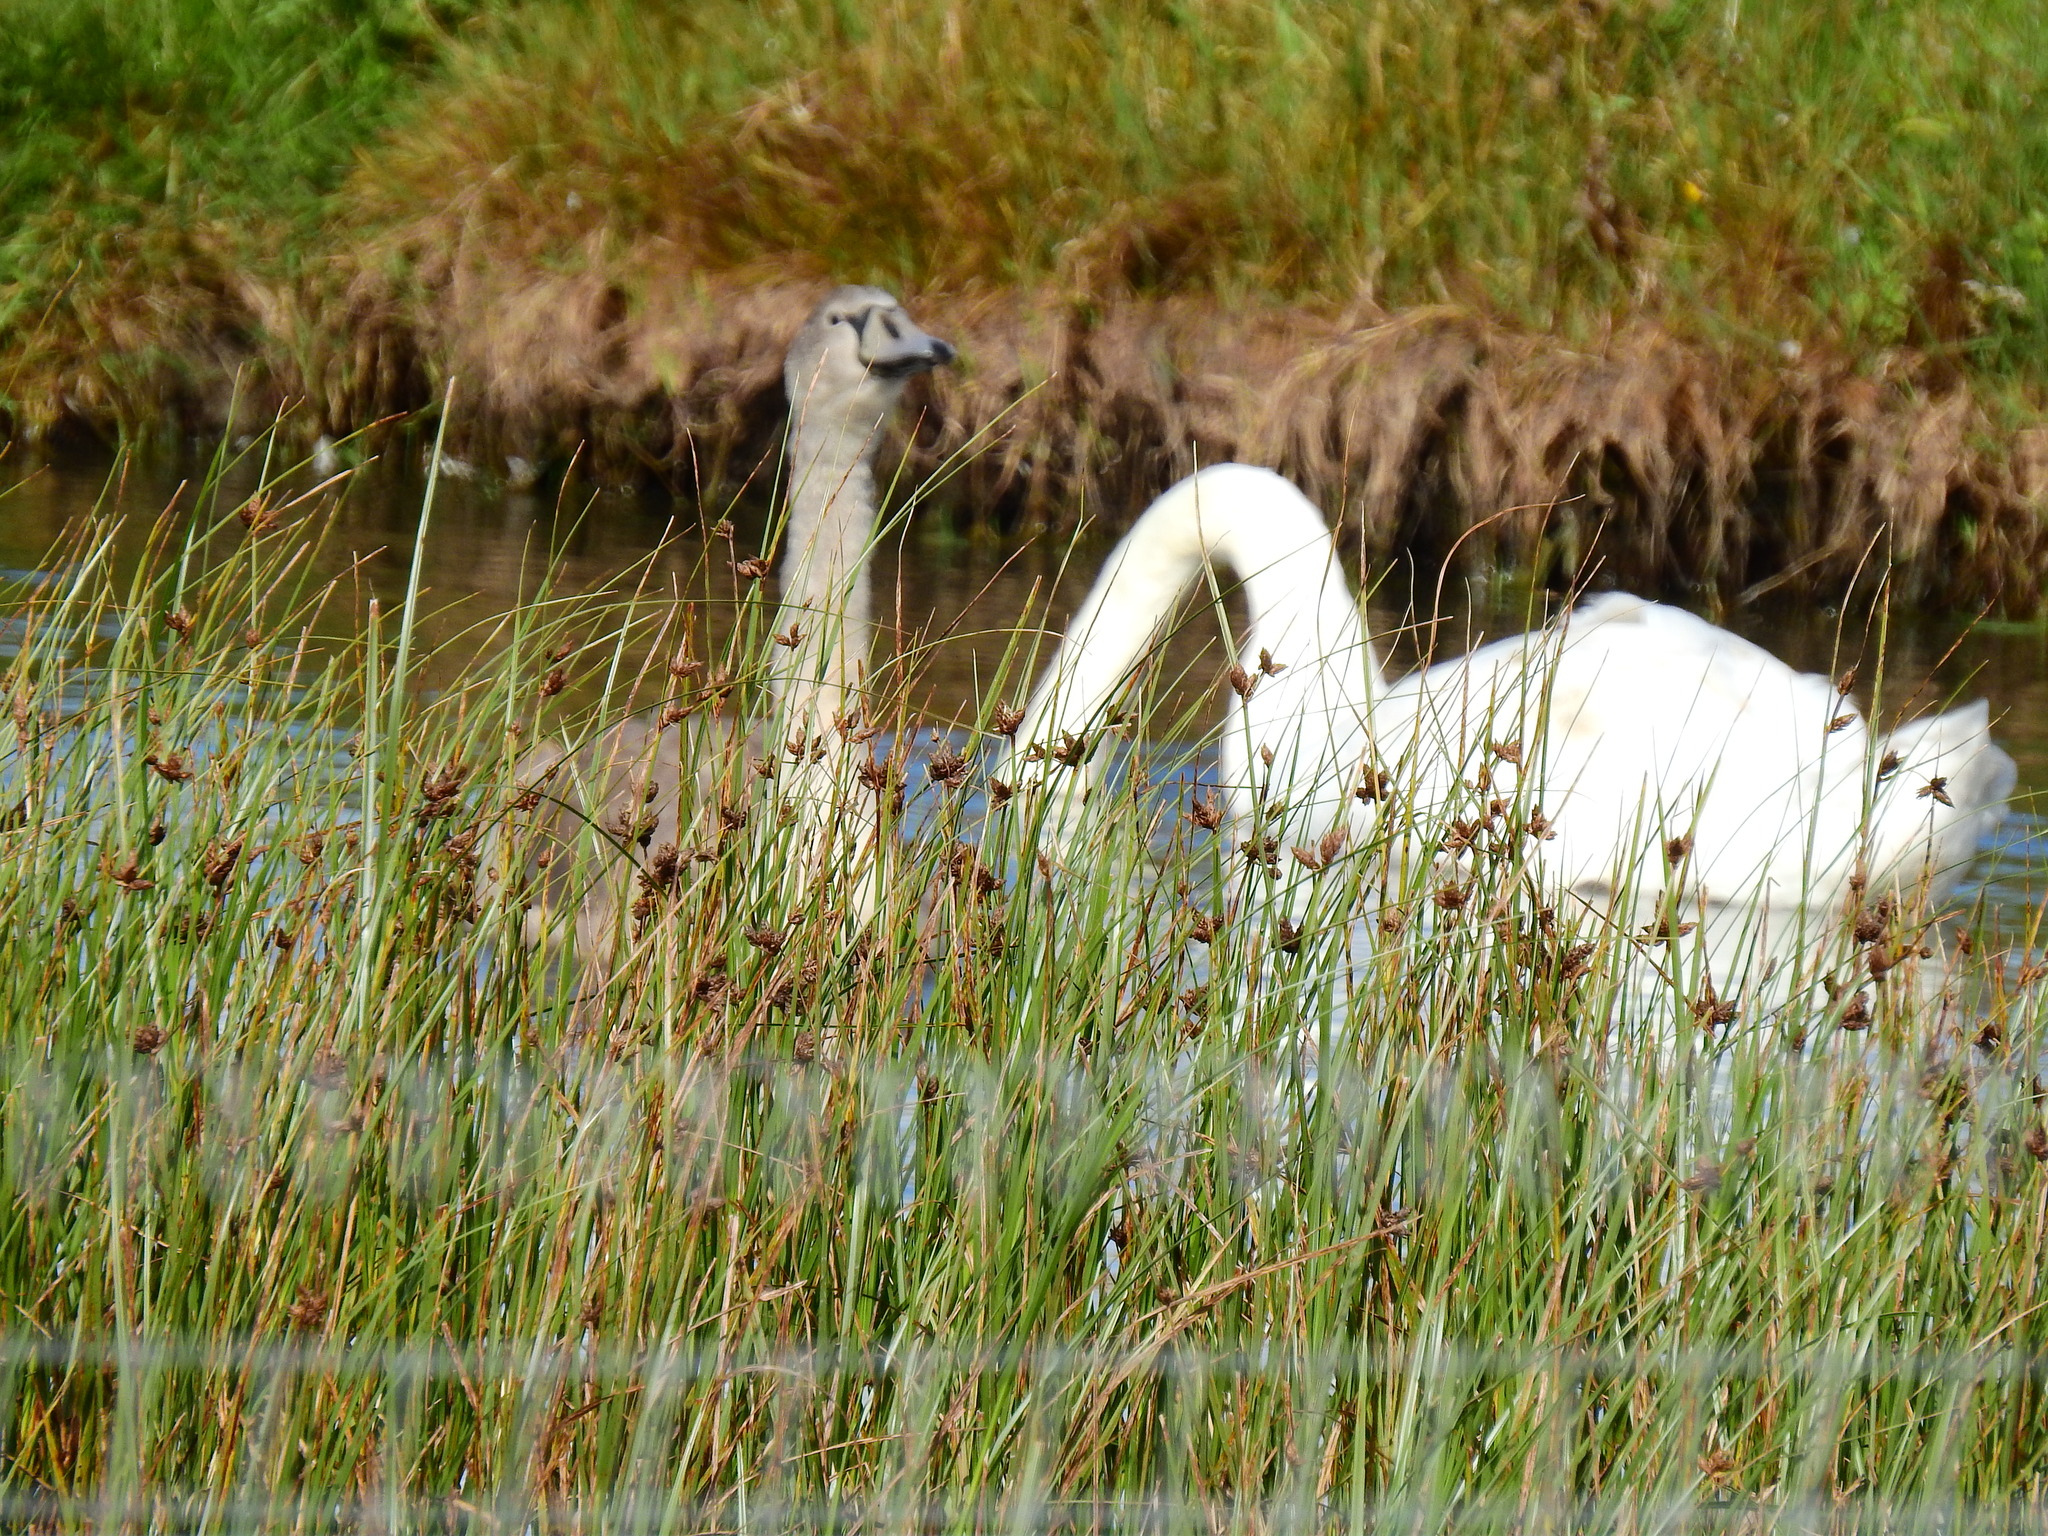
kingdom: Animalia
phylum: Chordata
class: Aves
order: Anseriformes
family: Anatidae
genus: Cygnus
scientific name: Cygnus olor
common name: Mute swan
